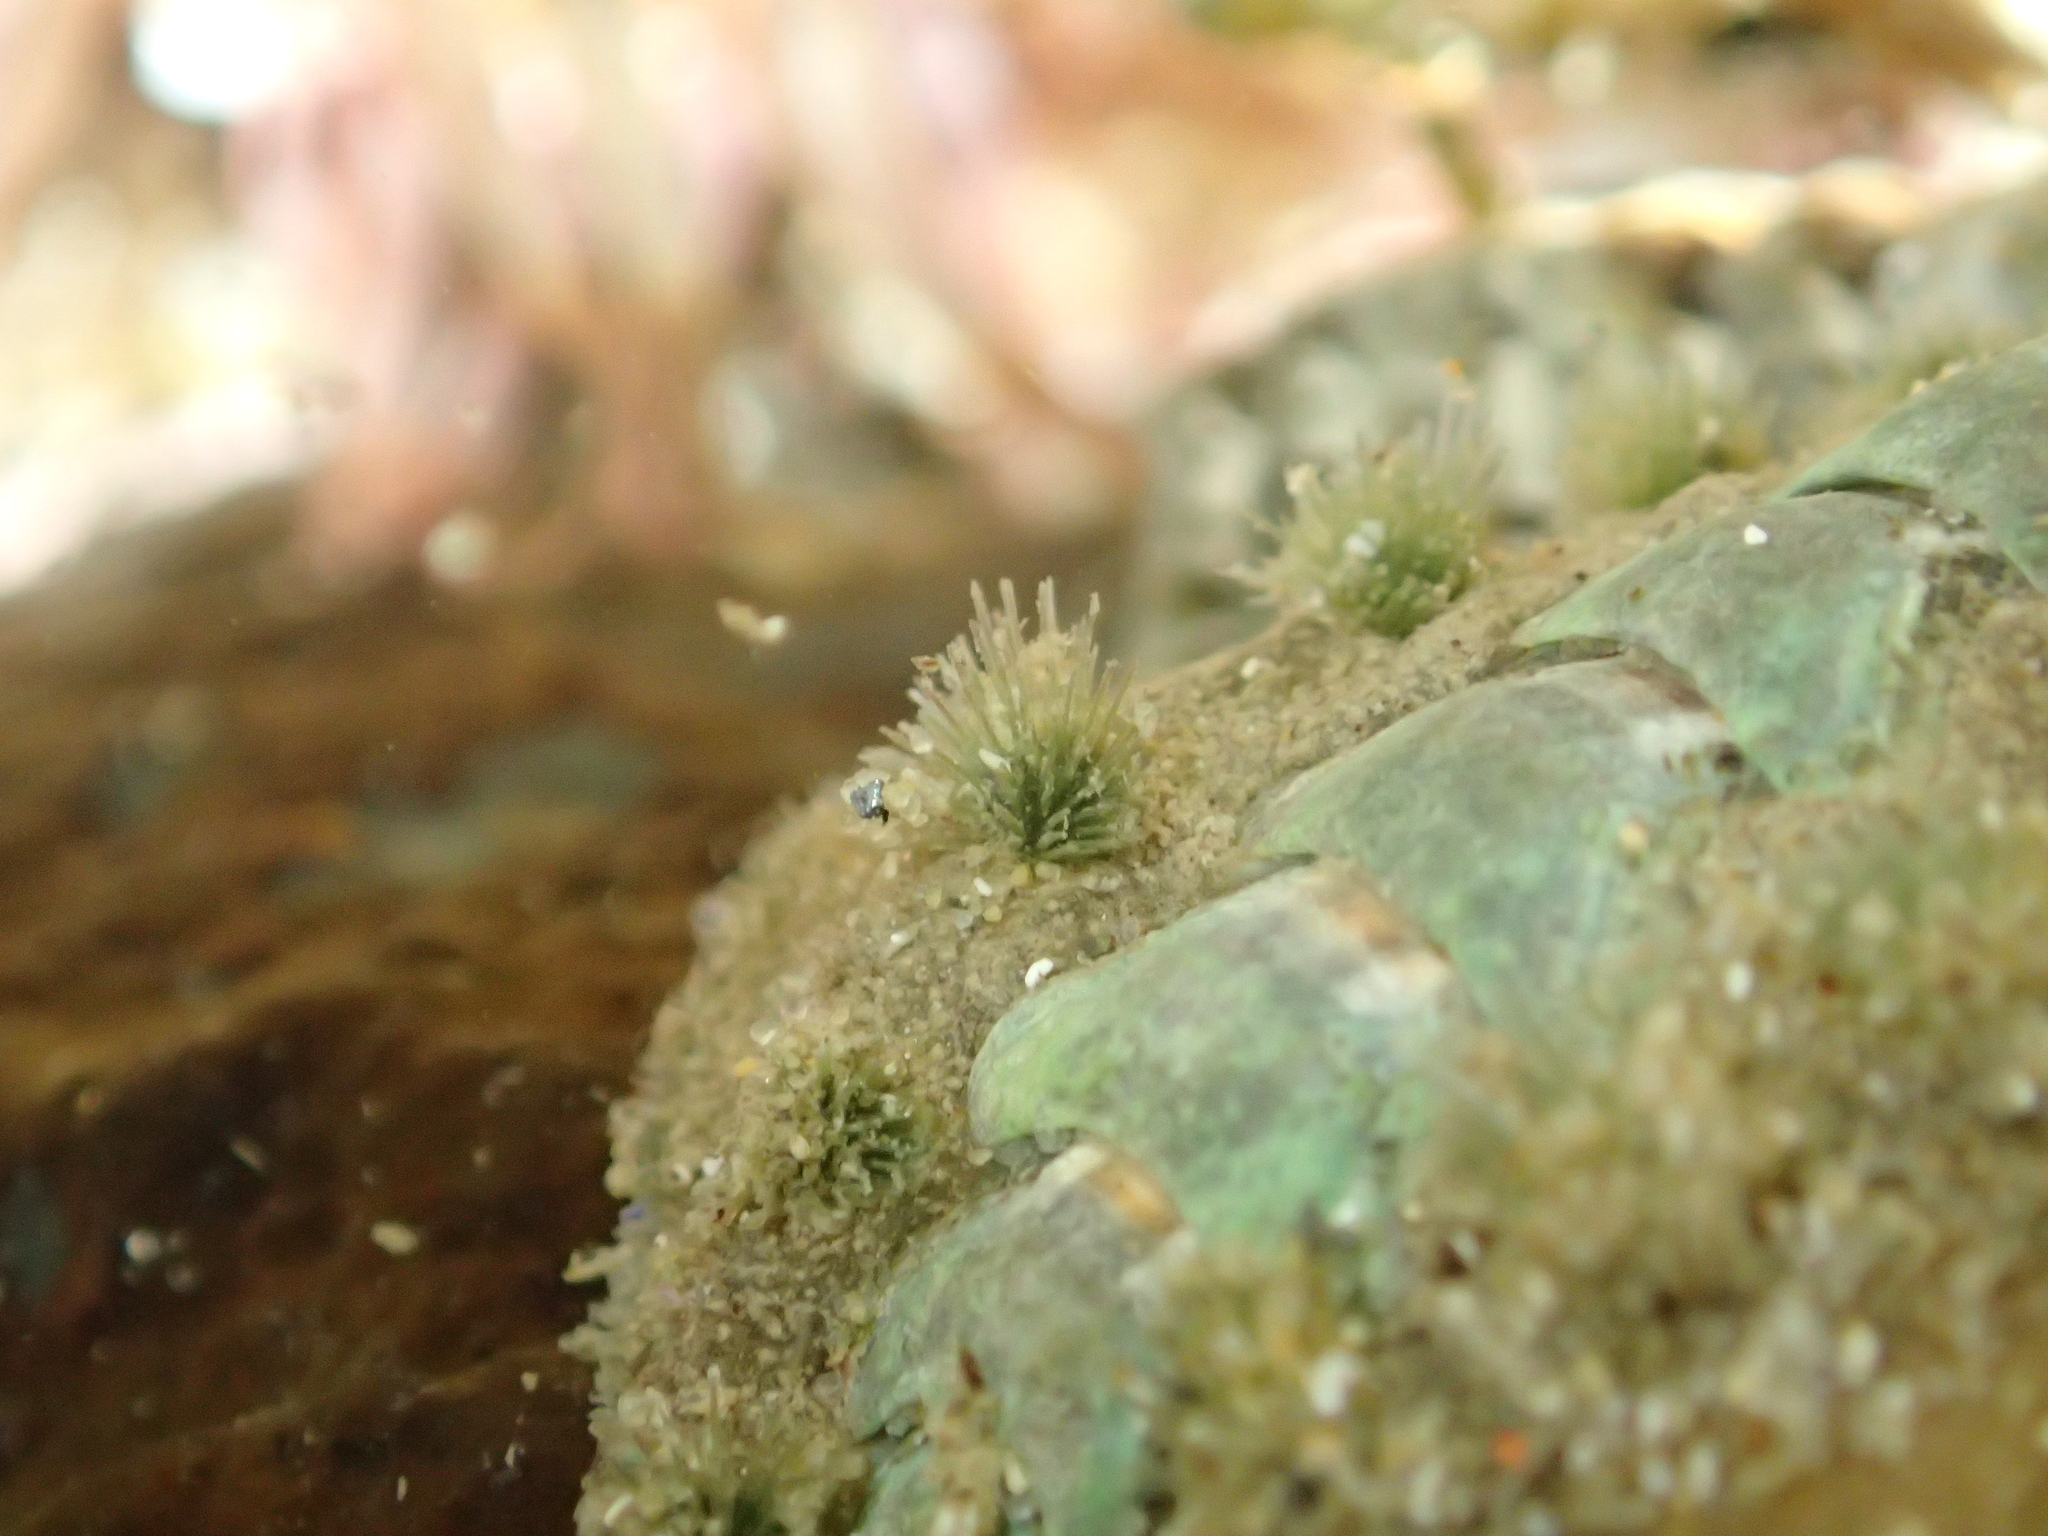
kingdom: Animalia
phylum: Mollusca
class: Polyplacophora
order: Chitonida
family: Acanthochitonidae
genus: Acanthochitona
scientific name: Acanthochitona zelandica
